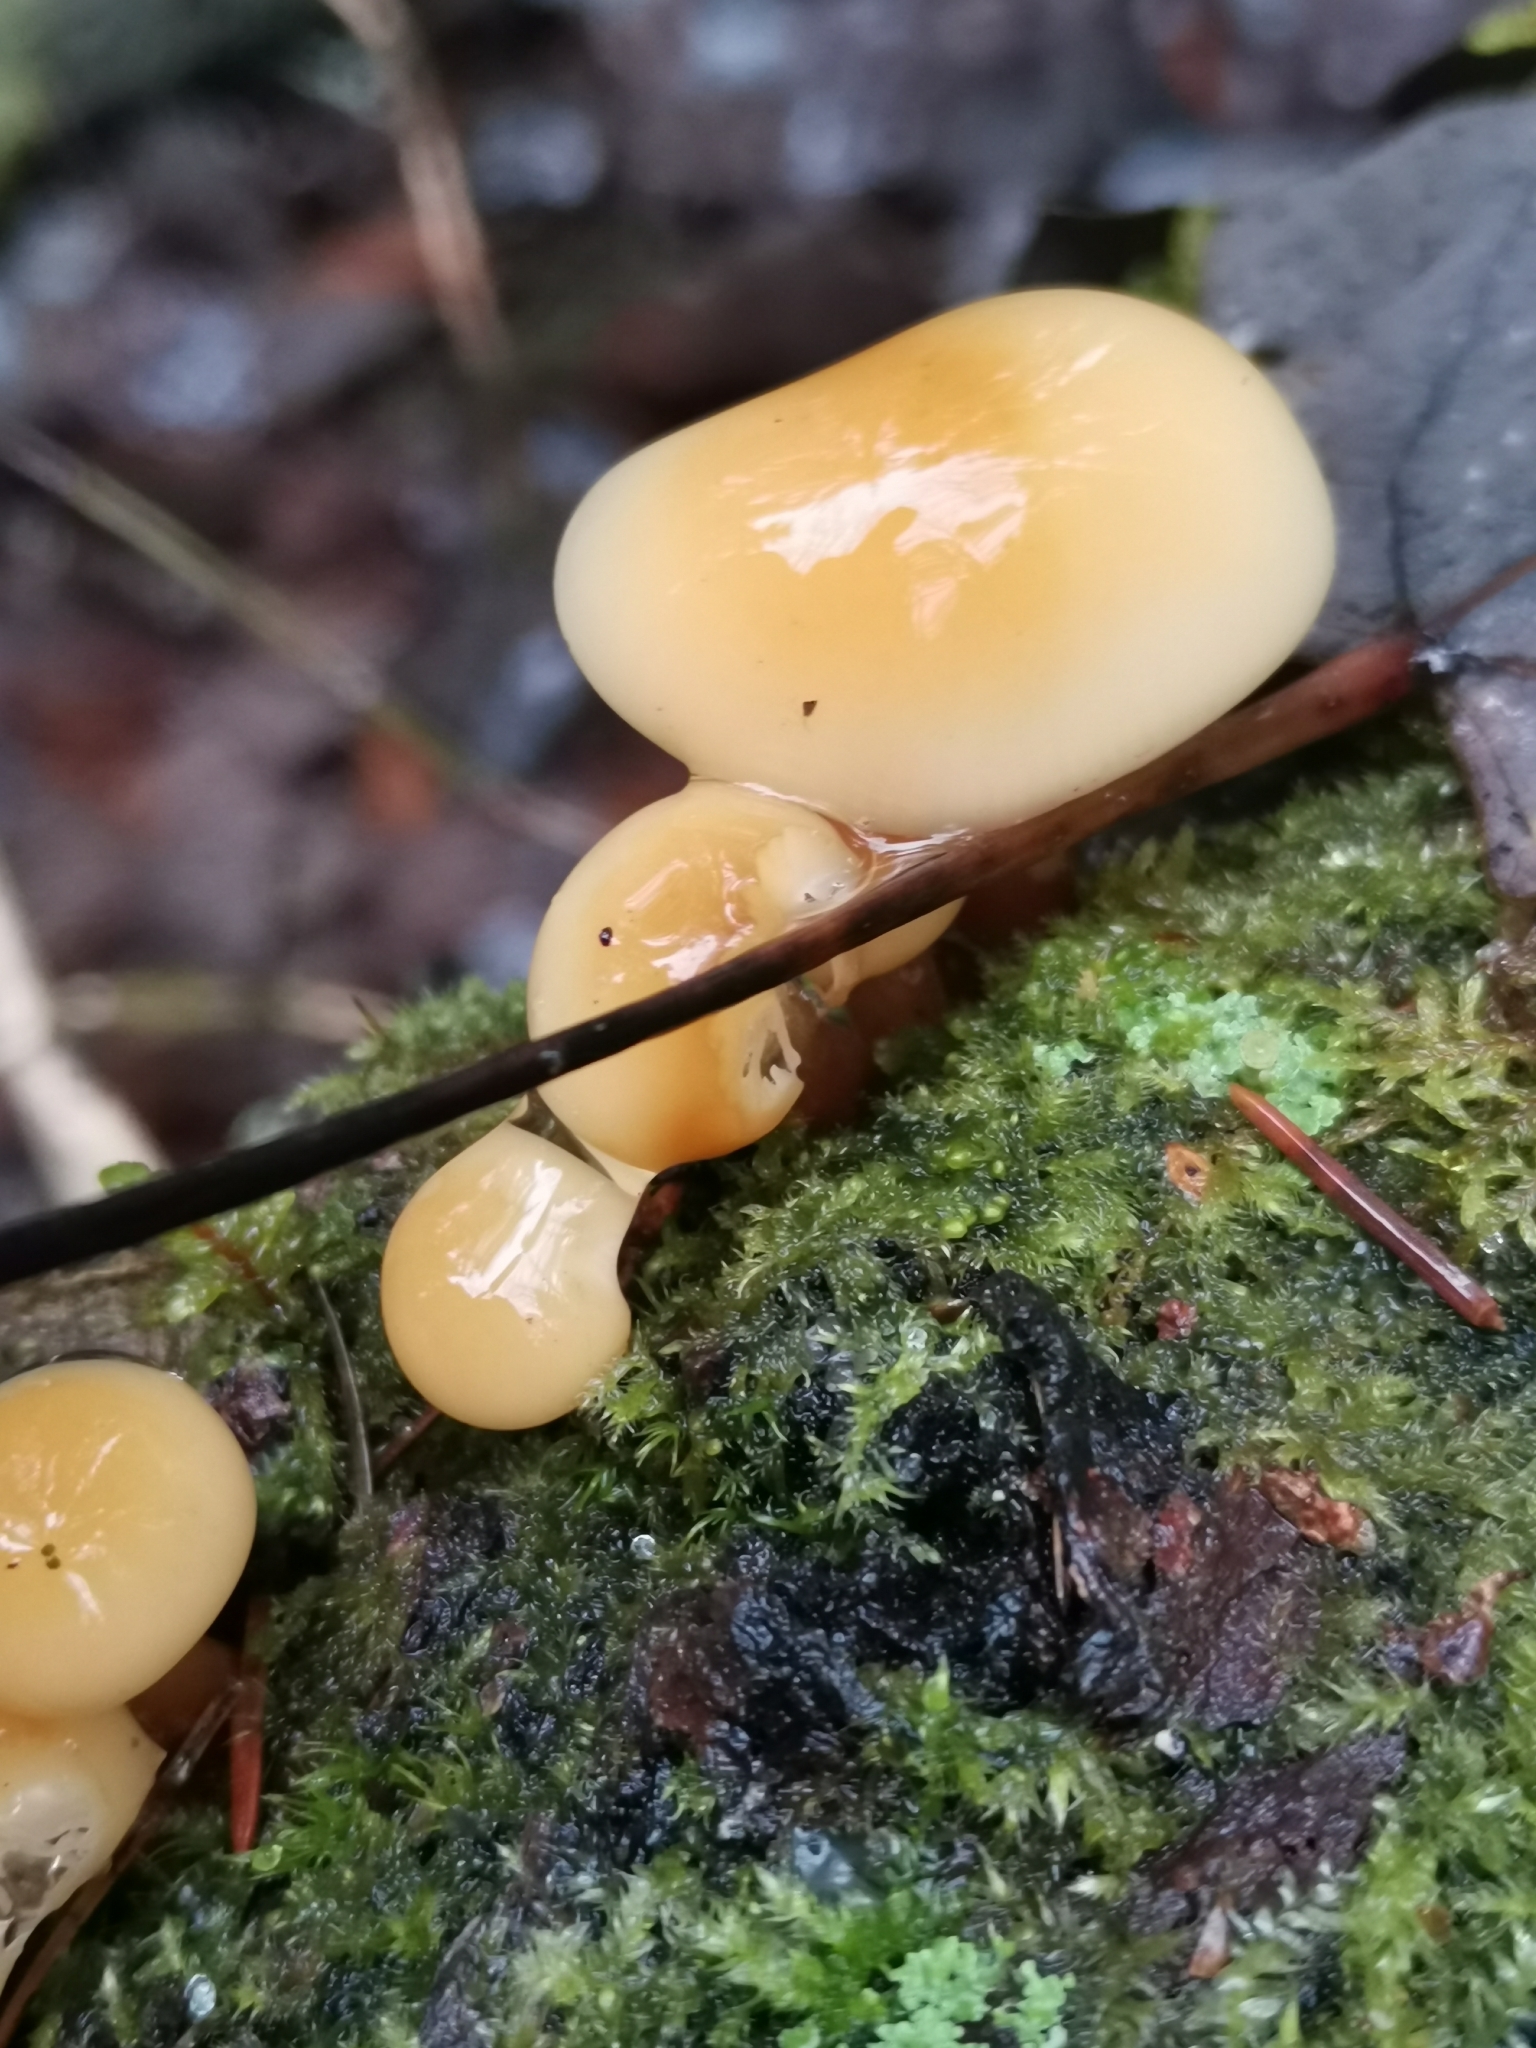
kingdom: Fungi
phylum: Basidiomycota
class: Agaricomycetes
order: Agaricales
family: Physalacriaceae
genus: Flammulina
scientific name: Flammulina
